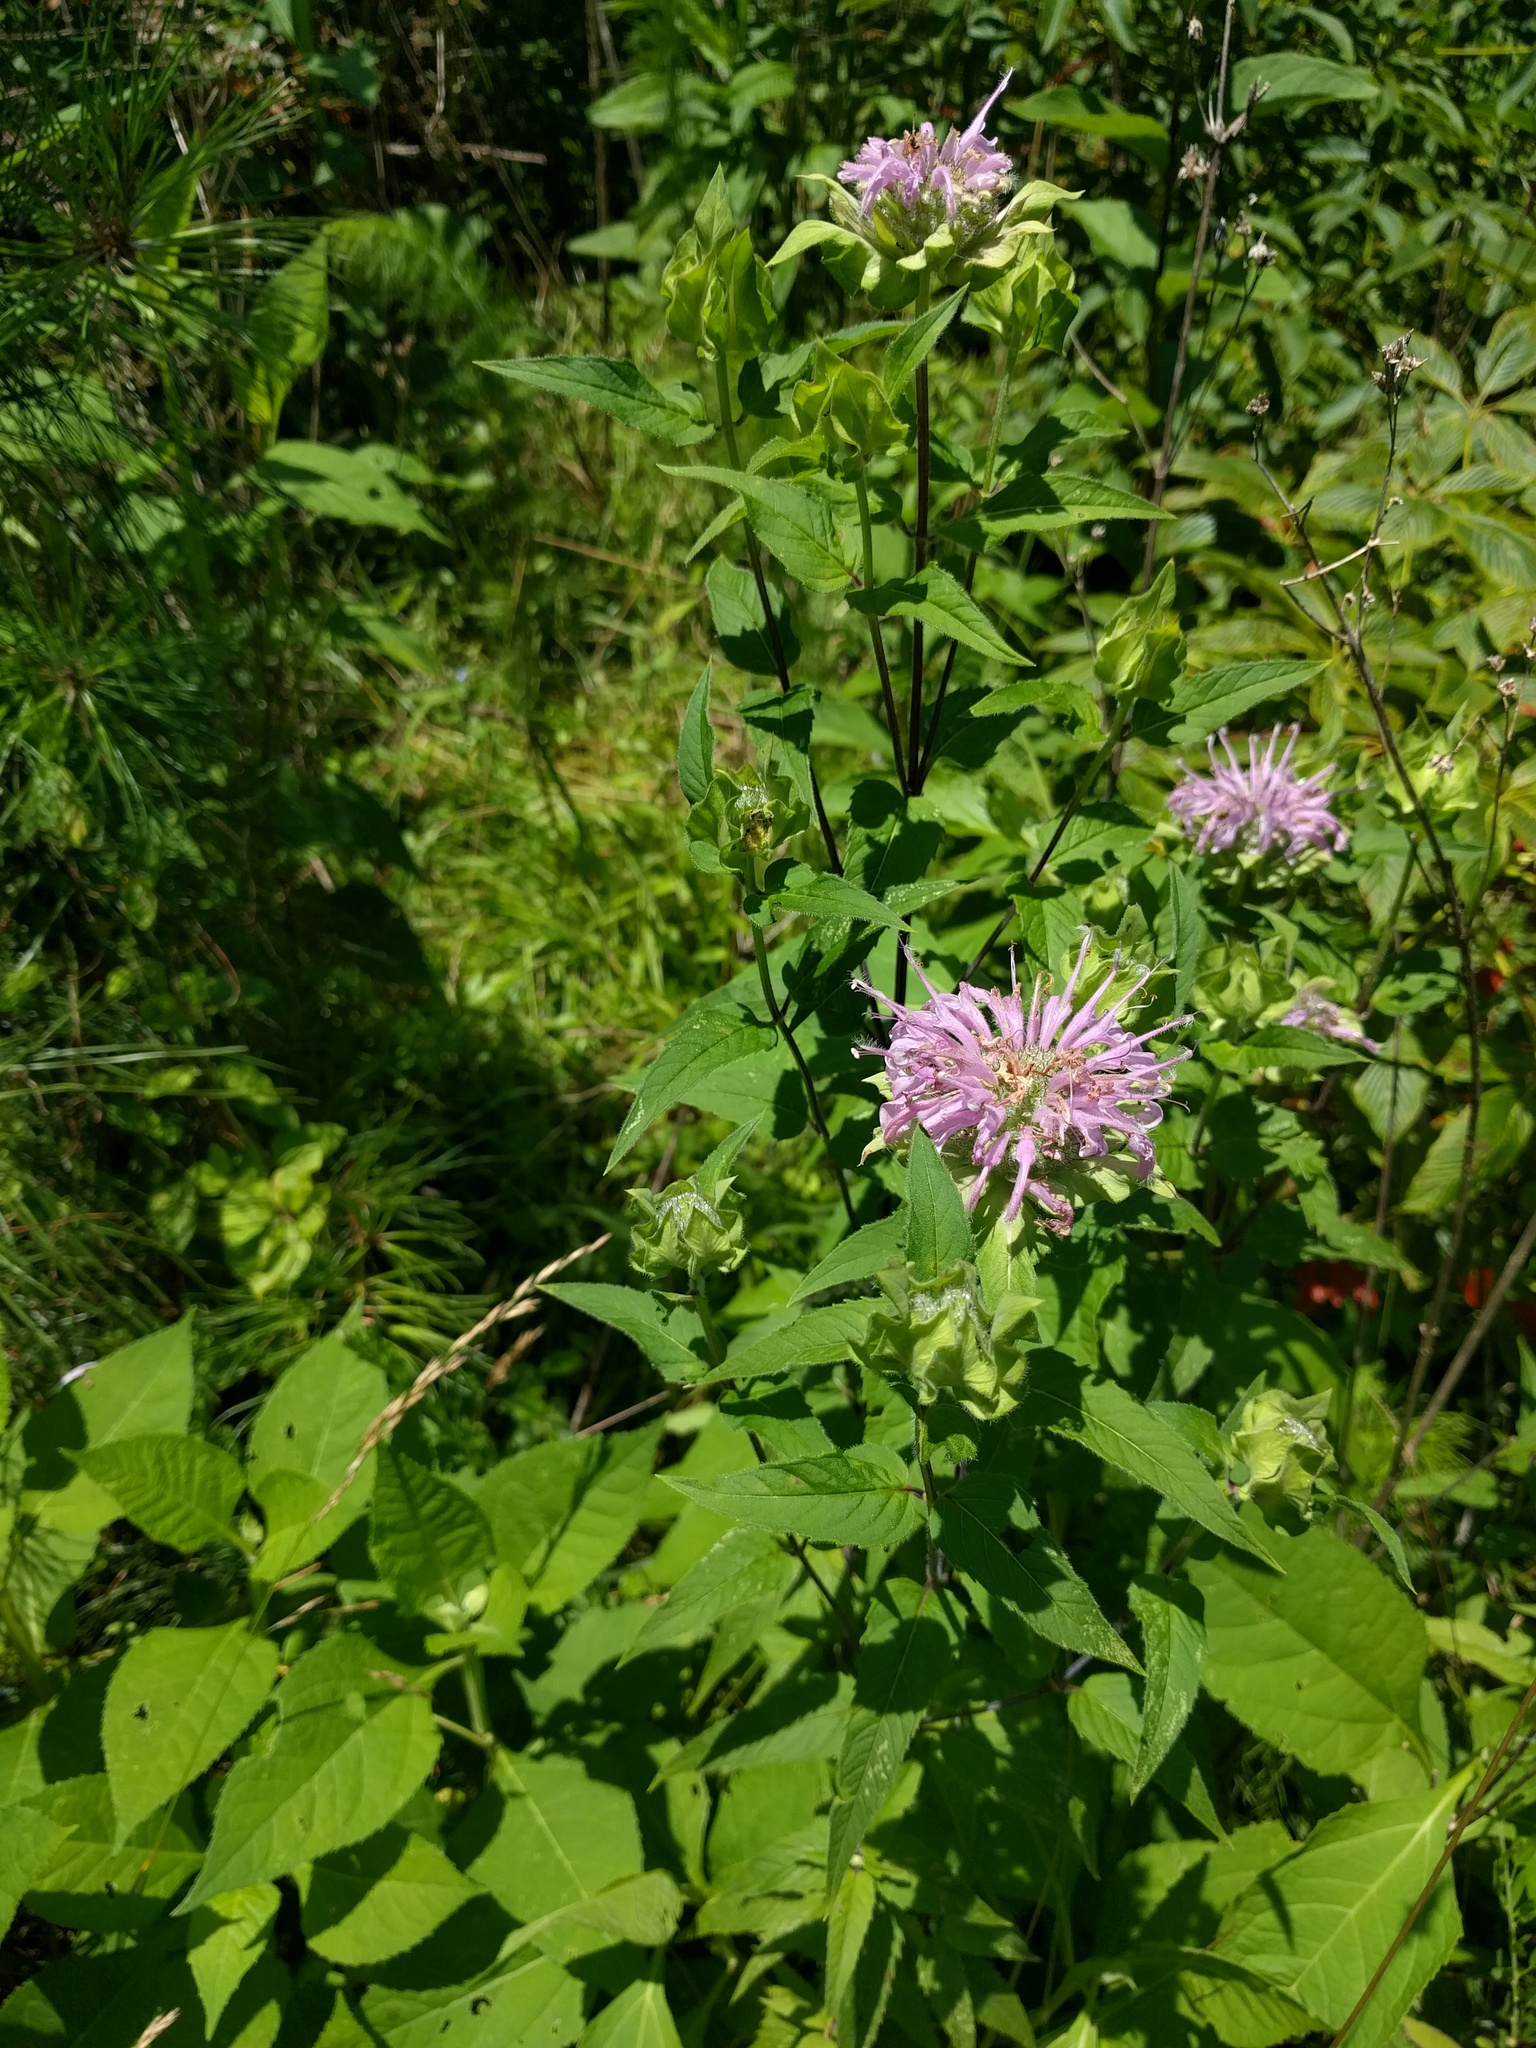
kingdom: Plantae
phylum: Tracheophyta
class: Magnoliopsida
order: Lamiales
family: Lamiaceae
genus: Monarda
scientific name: Monarda fistulosa
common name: Purple beebalm
